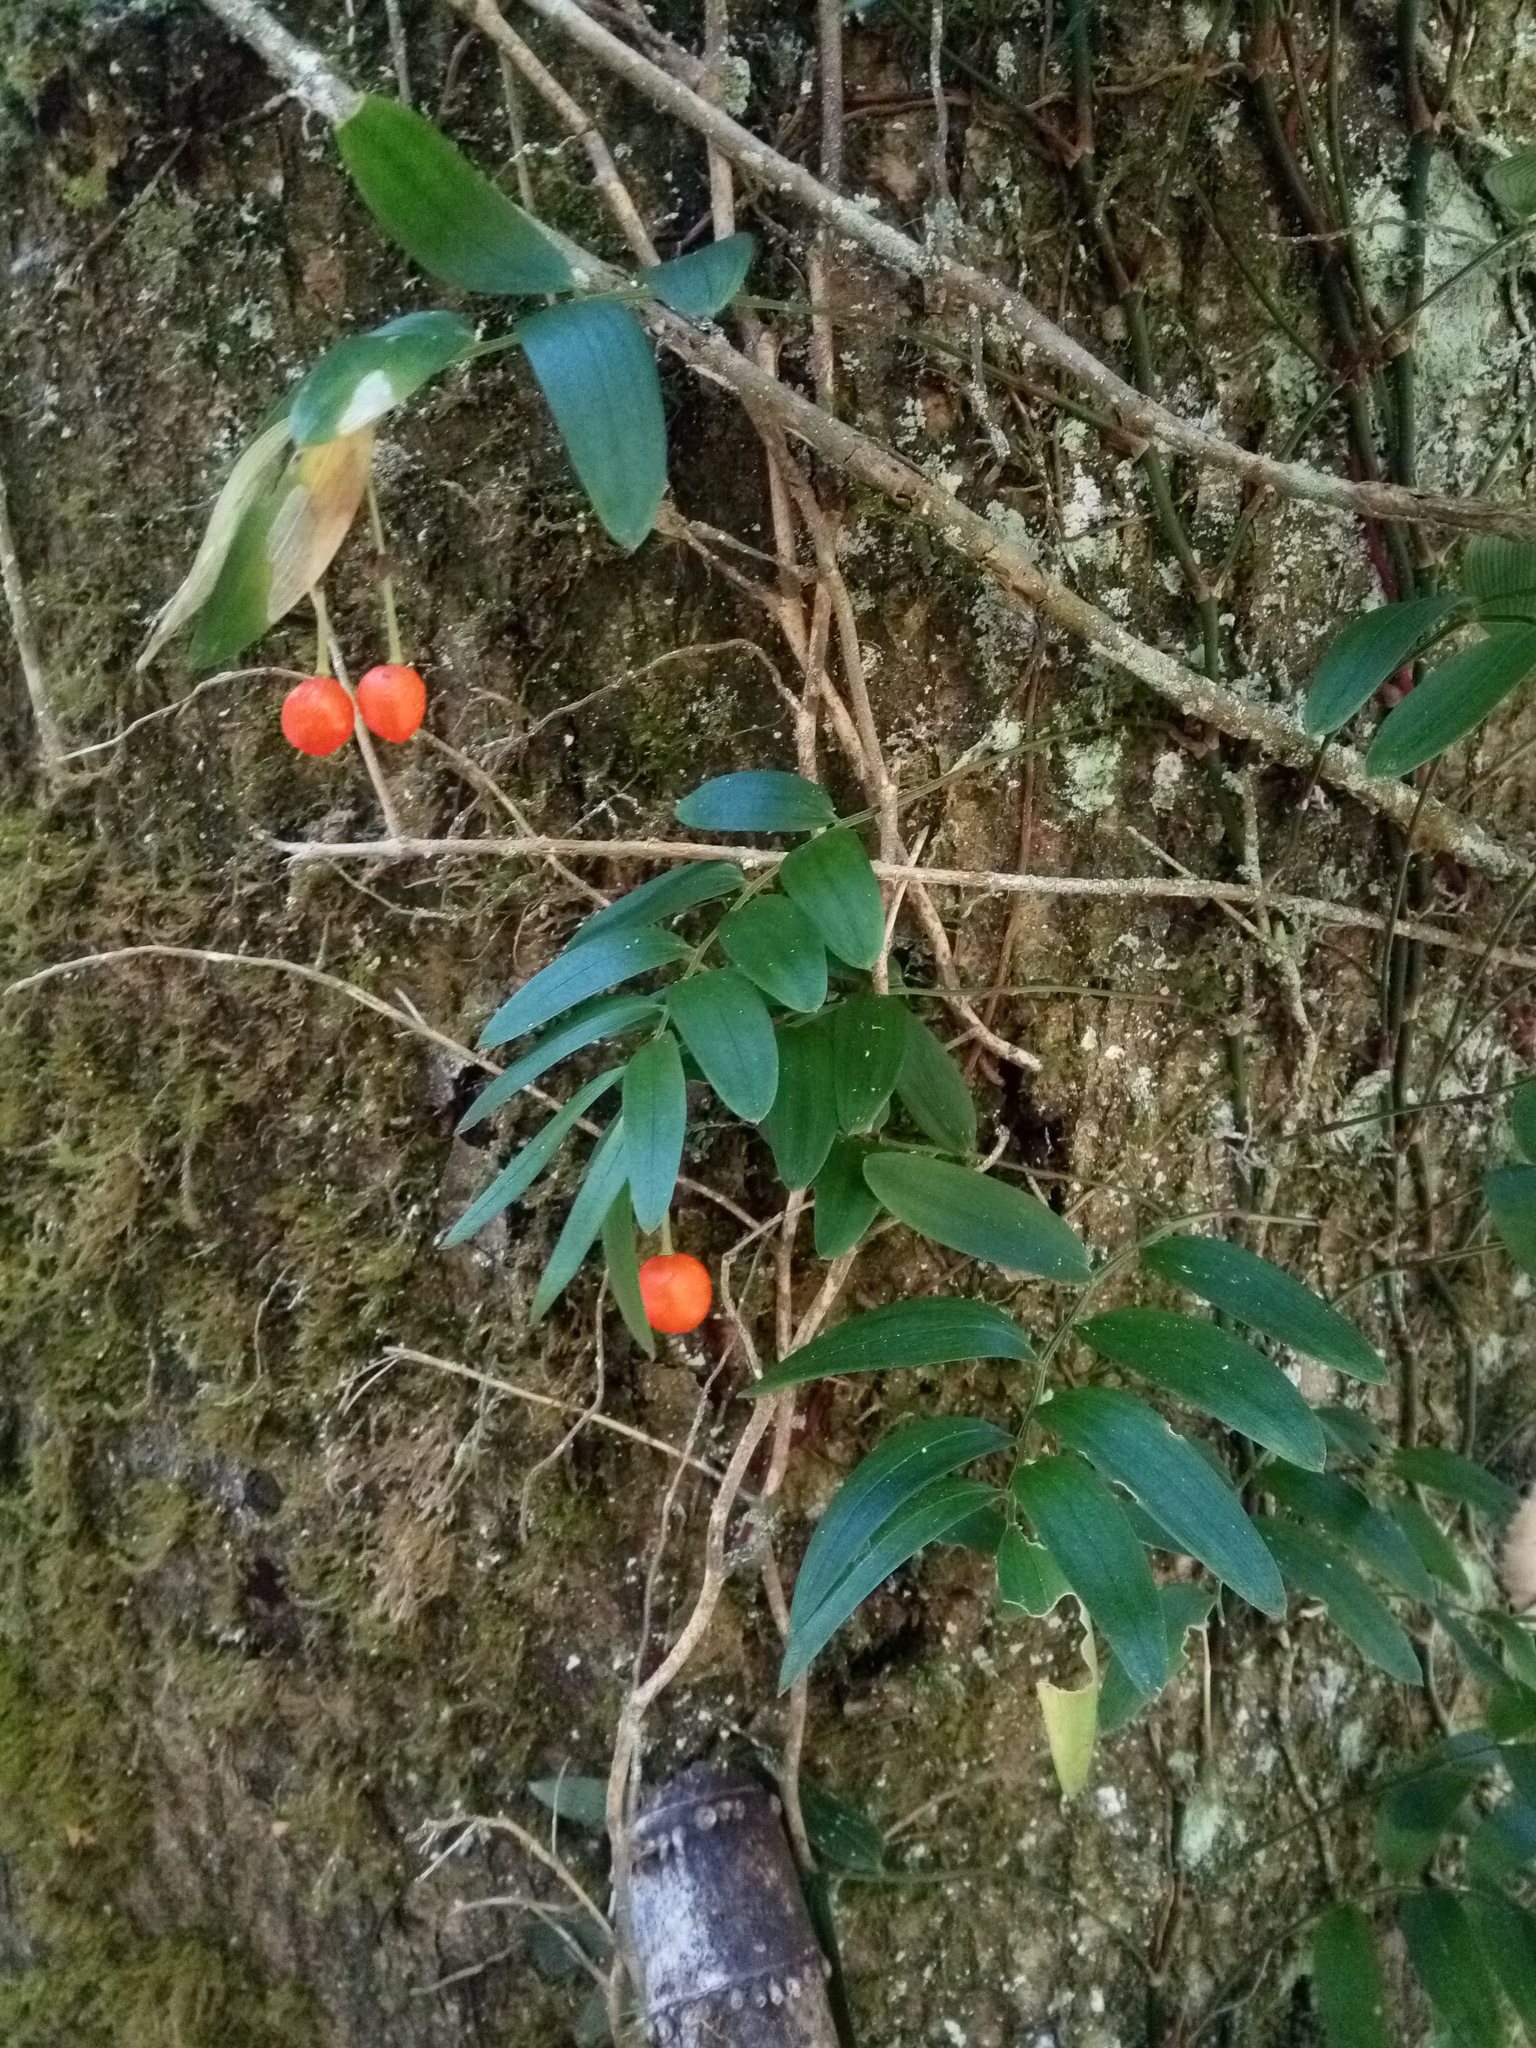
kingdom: Plantae
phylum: Tracheophyta
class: Liliopsida
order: Liliales
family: Alstroemeriaceae
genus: Luzuriaga
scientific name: Luzuriaga radicans
